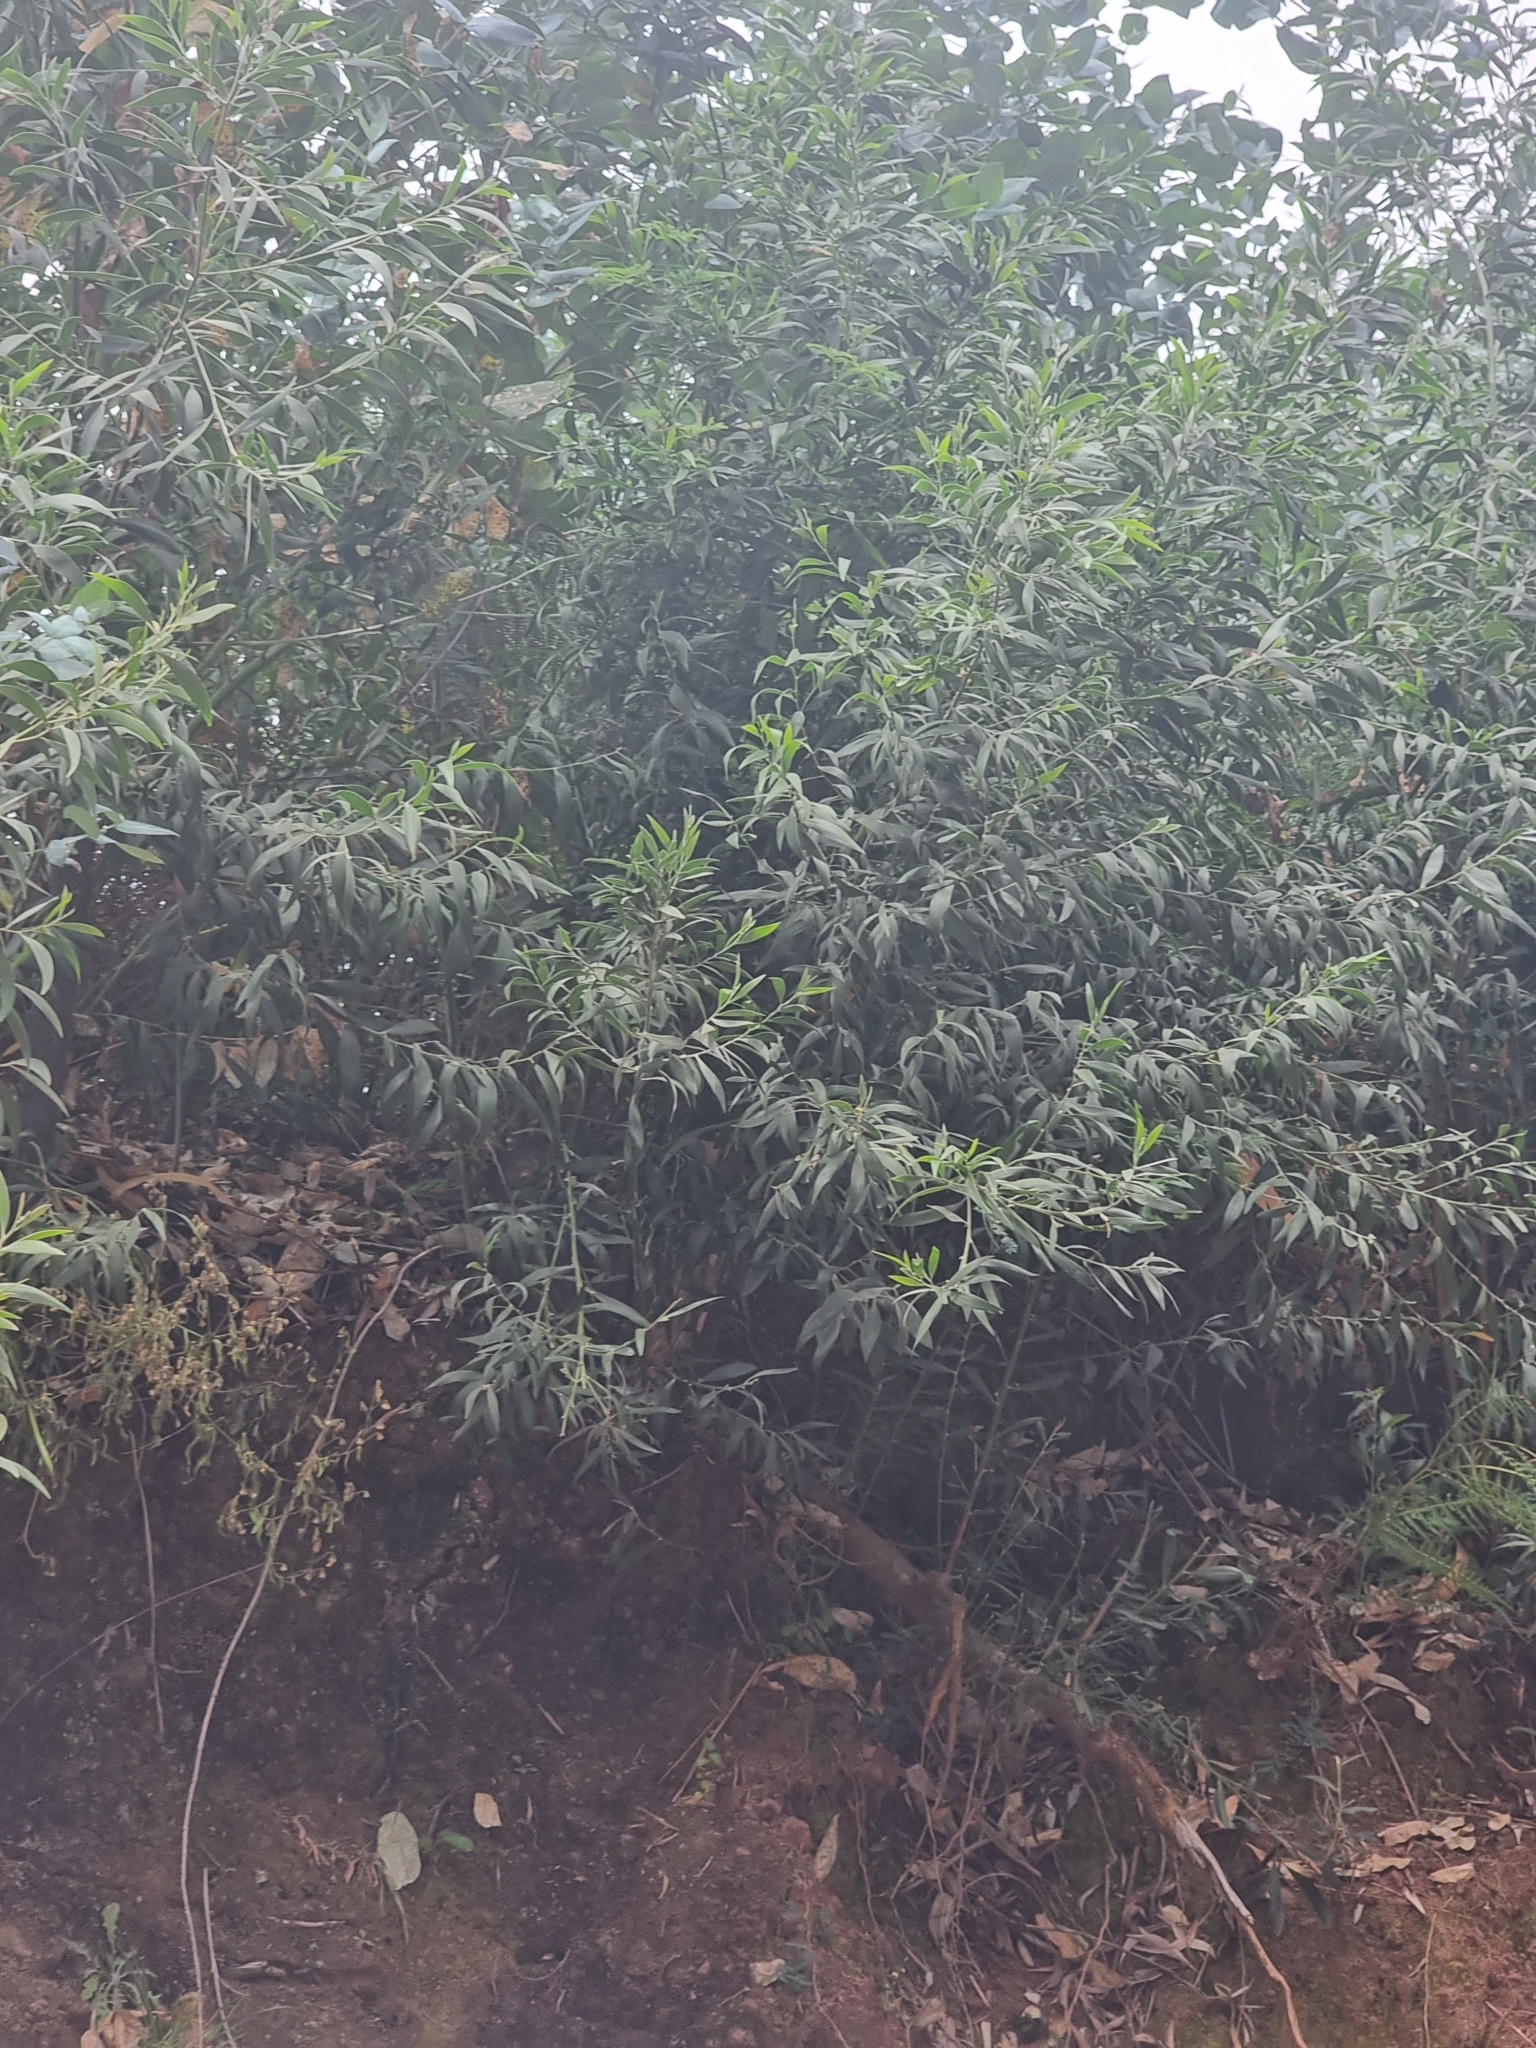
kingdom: Plantae
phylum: Tracheophyta
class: Magnoliopsida
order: Fabales
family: Fabaceae
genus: Acacia
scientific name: Acacia melanoxylon
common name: Blackwood
